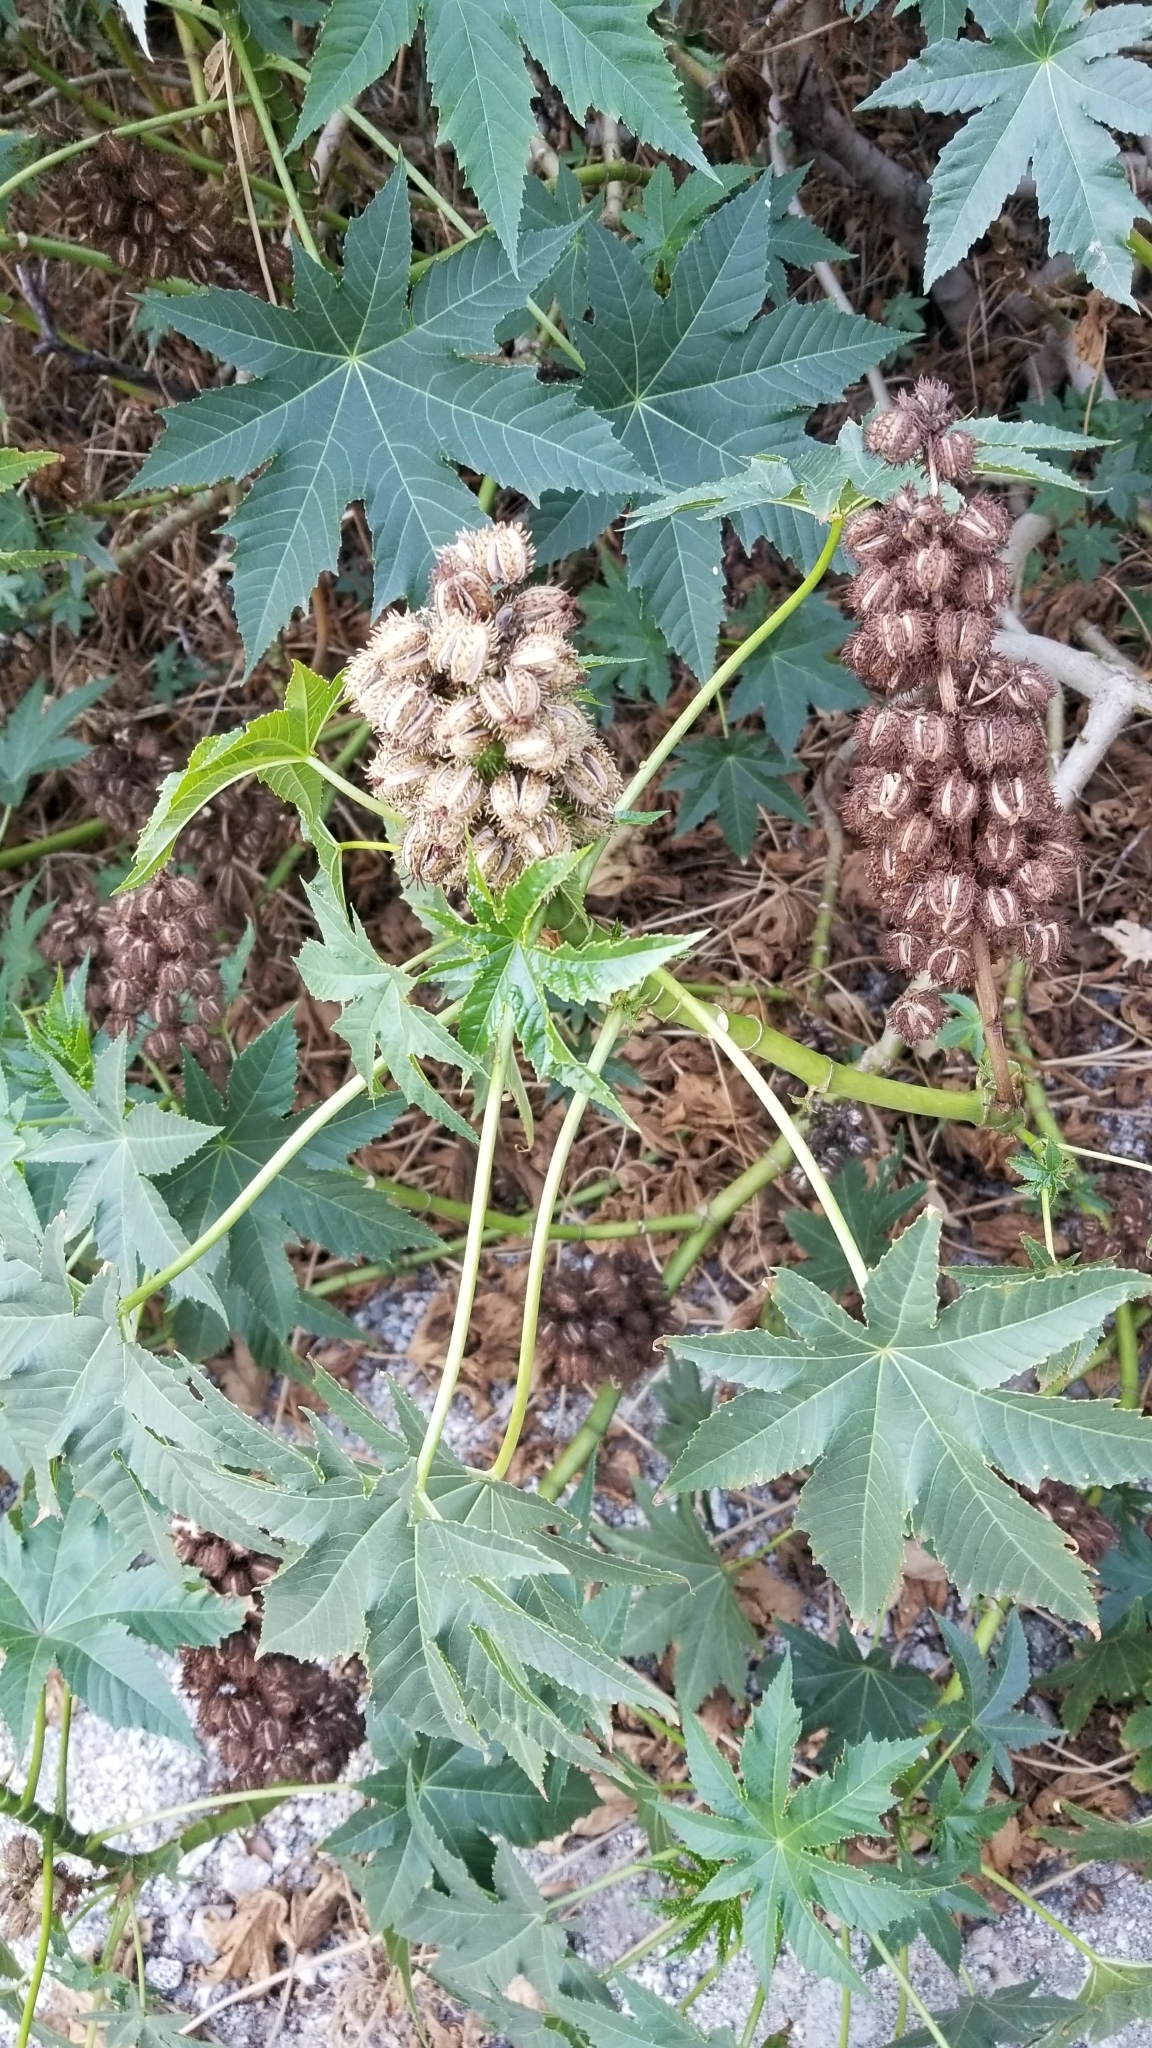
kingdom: Plantae
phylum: Tracheophyta
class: Magnoliopsida
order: Malpighiales
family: Euphorbiaceae
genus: Ricinus
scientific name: Ricinus communis
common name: Castor-oil-plant
